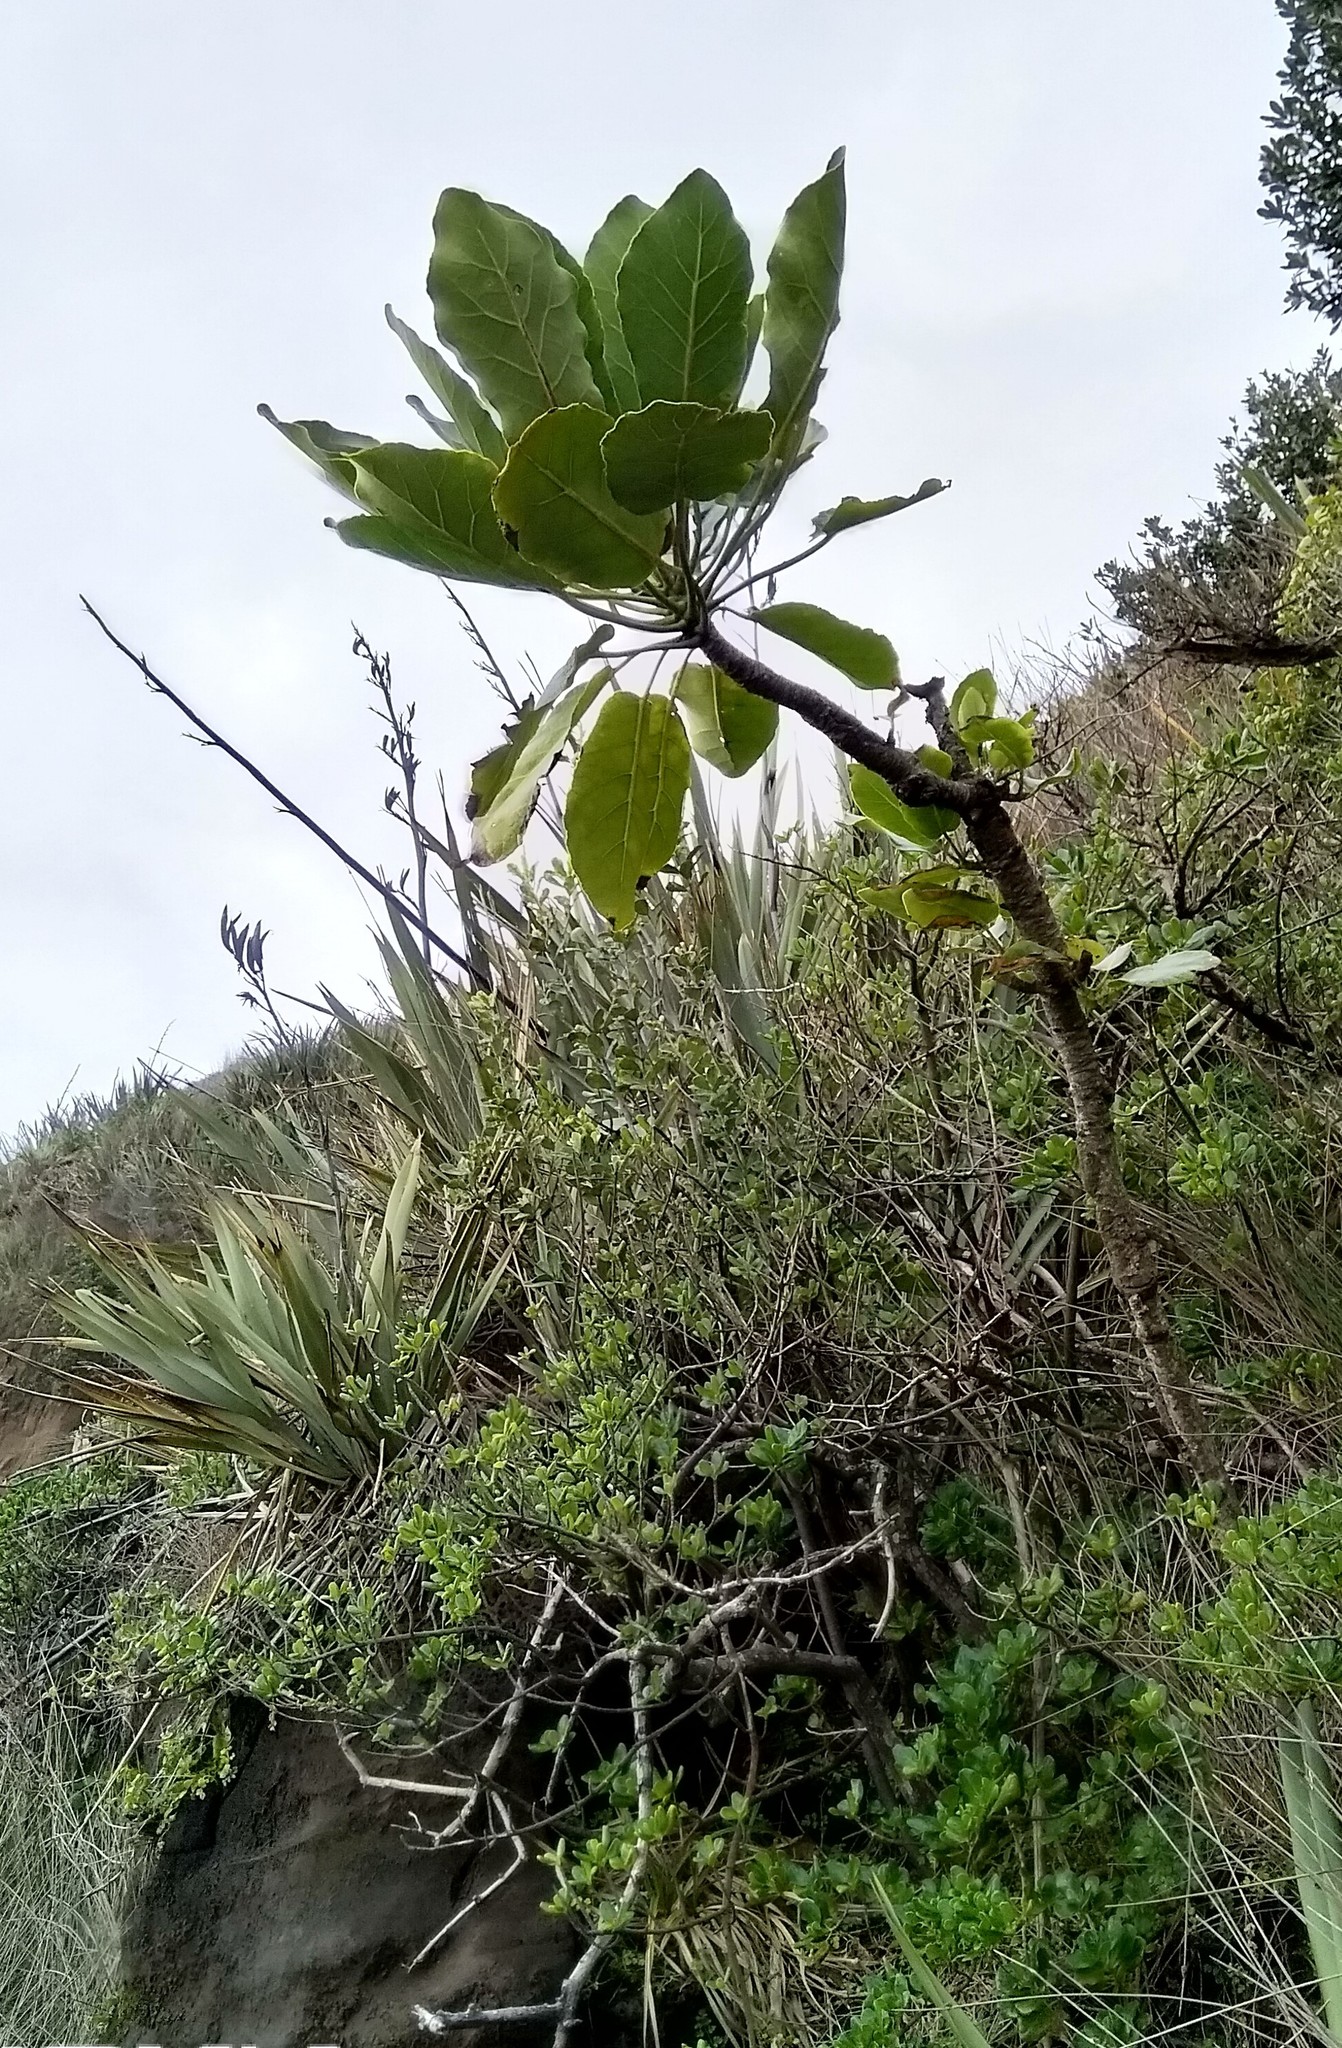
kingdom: Plantae
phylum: Tracheophyta
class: Magnoliopsida
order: Apiales
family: Araliaceae
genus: Meryta
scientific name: Meryta sinclairii
